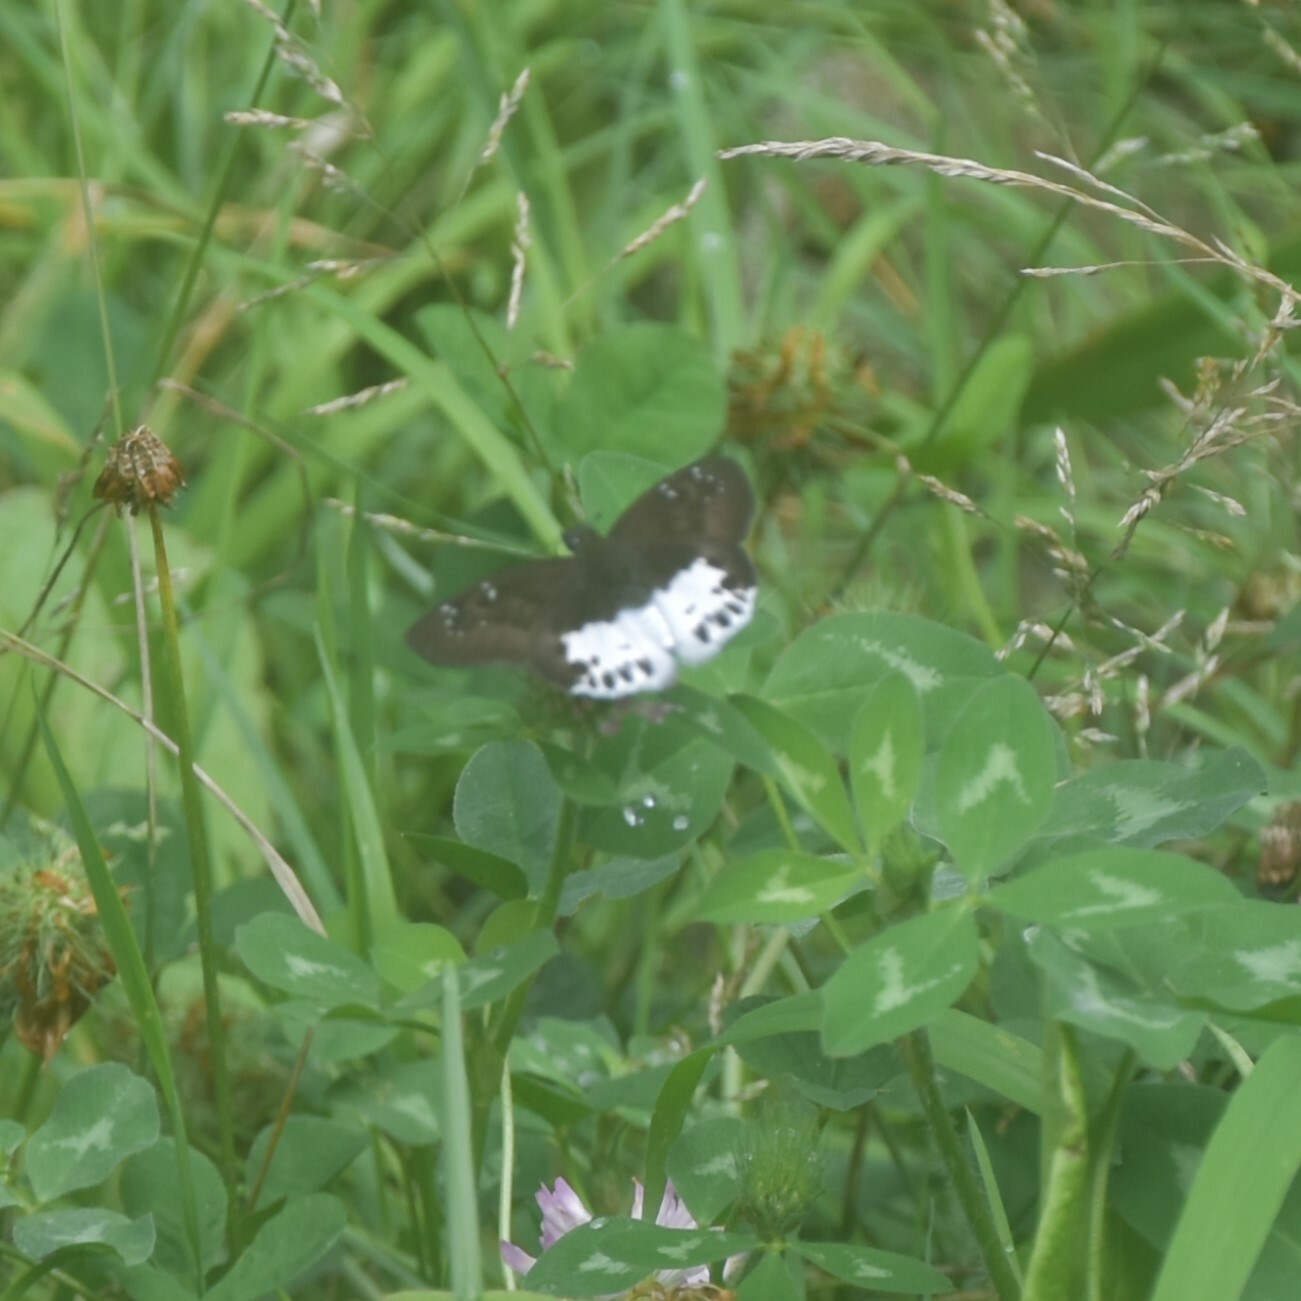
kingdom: Animalia
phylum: Arthropoda
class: Insecta
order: Lepidoptera
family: Hesperiidae
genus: Tagiades
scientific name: Tagiades menaka
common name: Dark-edged snow flat
